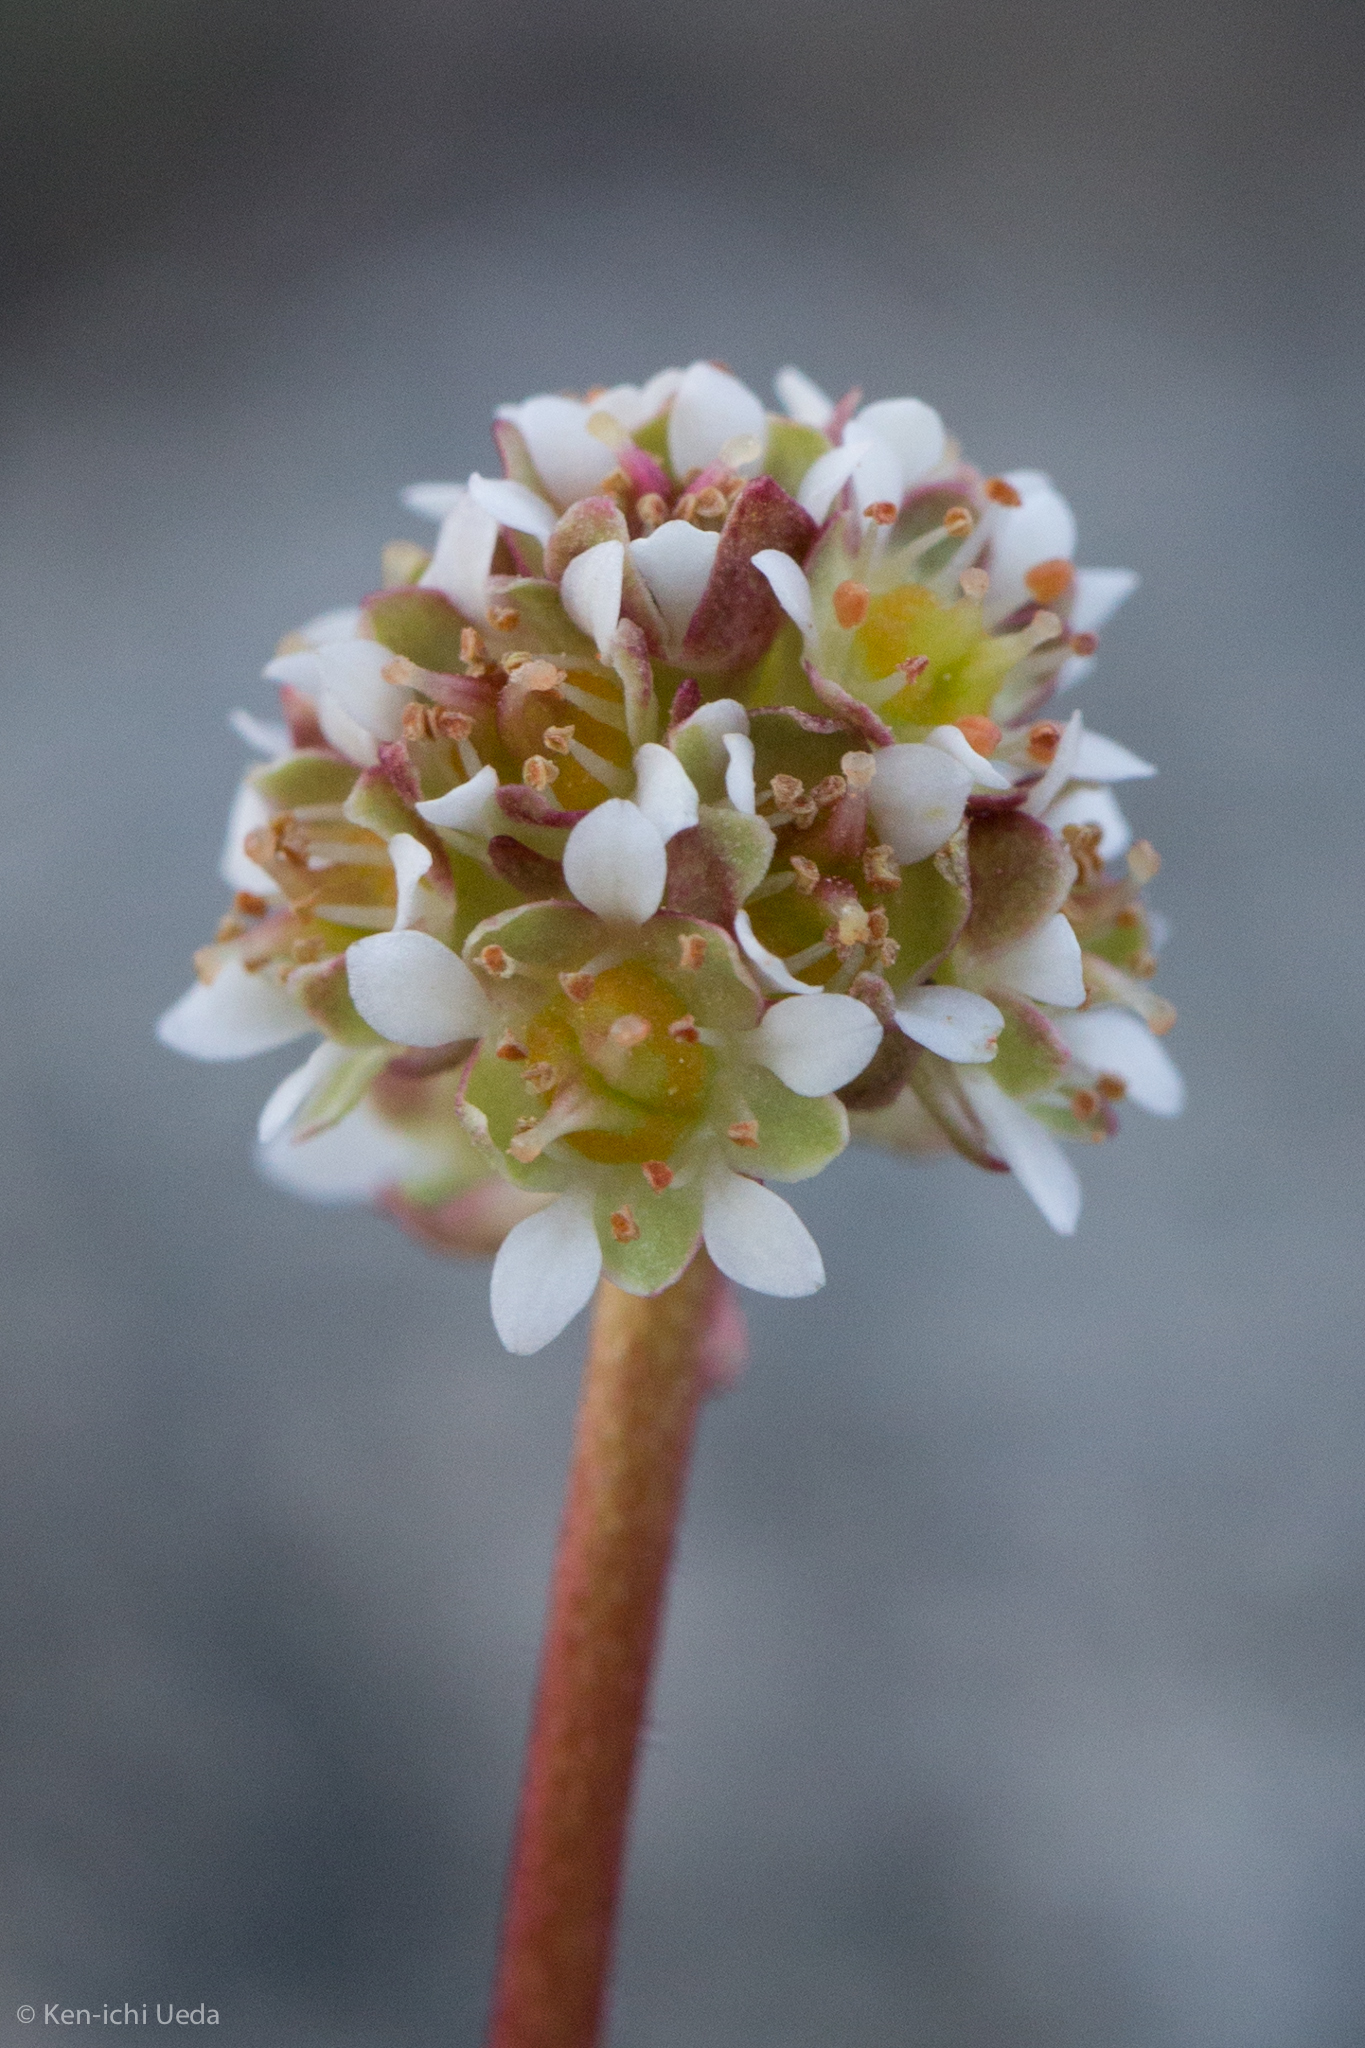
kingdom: Plantae
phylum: Tracheophyta
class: Magnoliopsida
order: Saxifragales
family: Saxifragaceae
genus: Micranthes
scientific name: Micranthes aprica
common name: Sierra saxifrage
